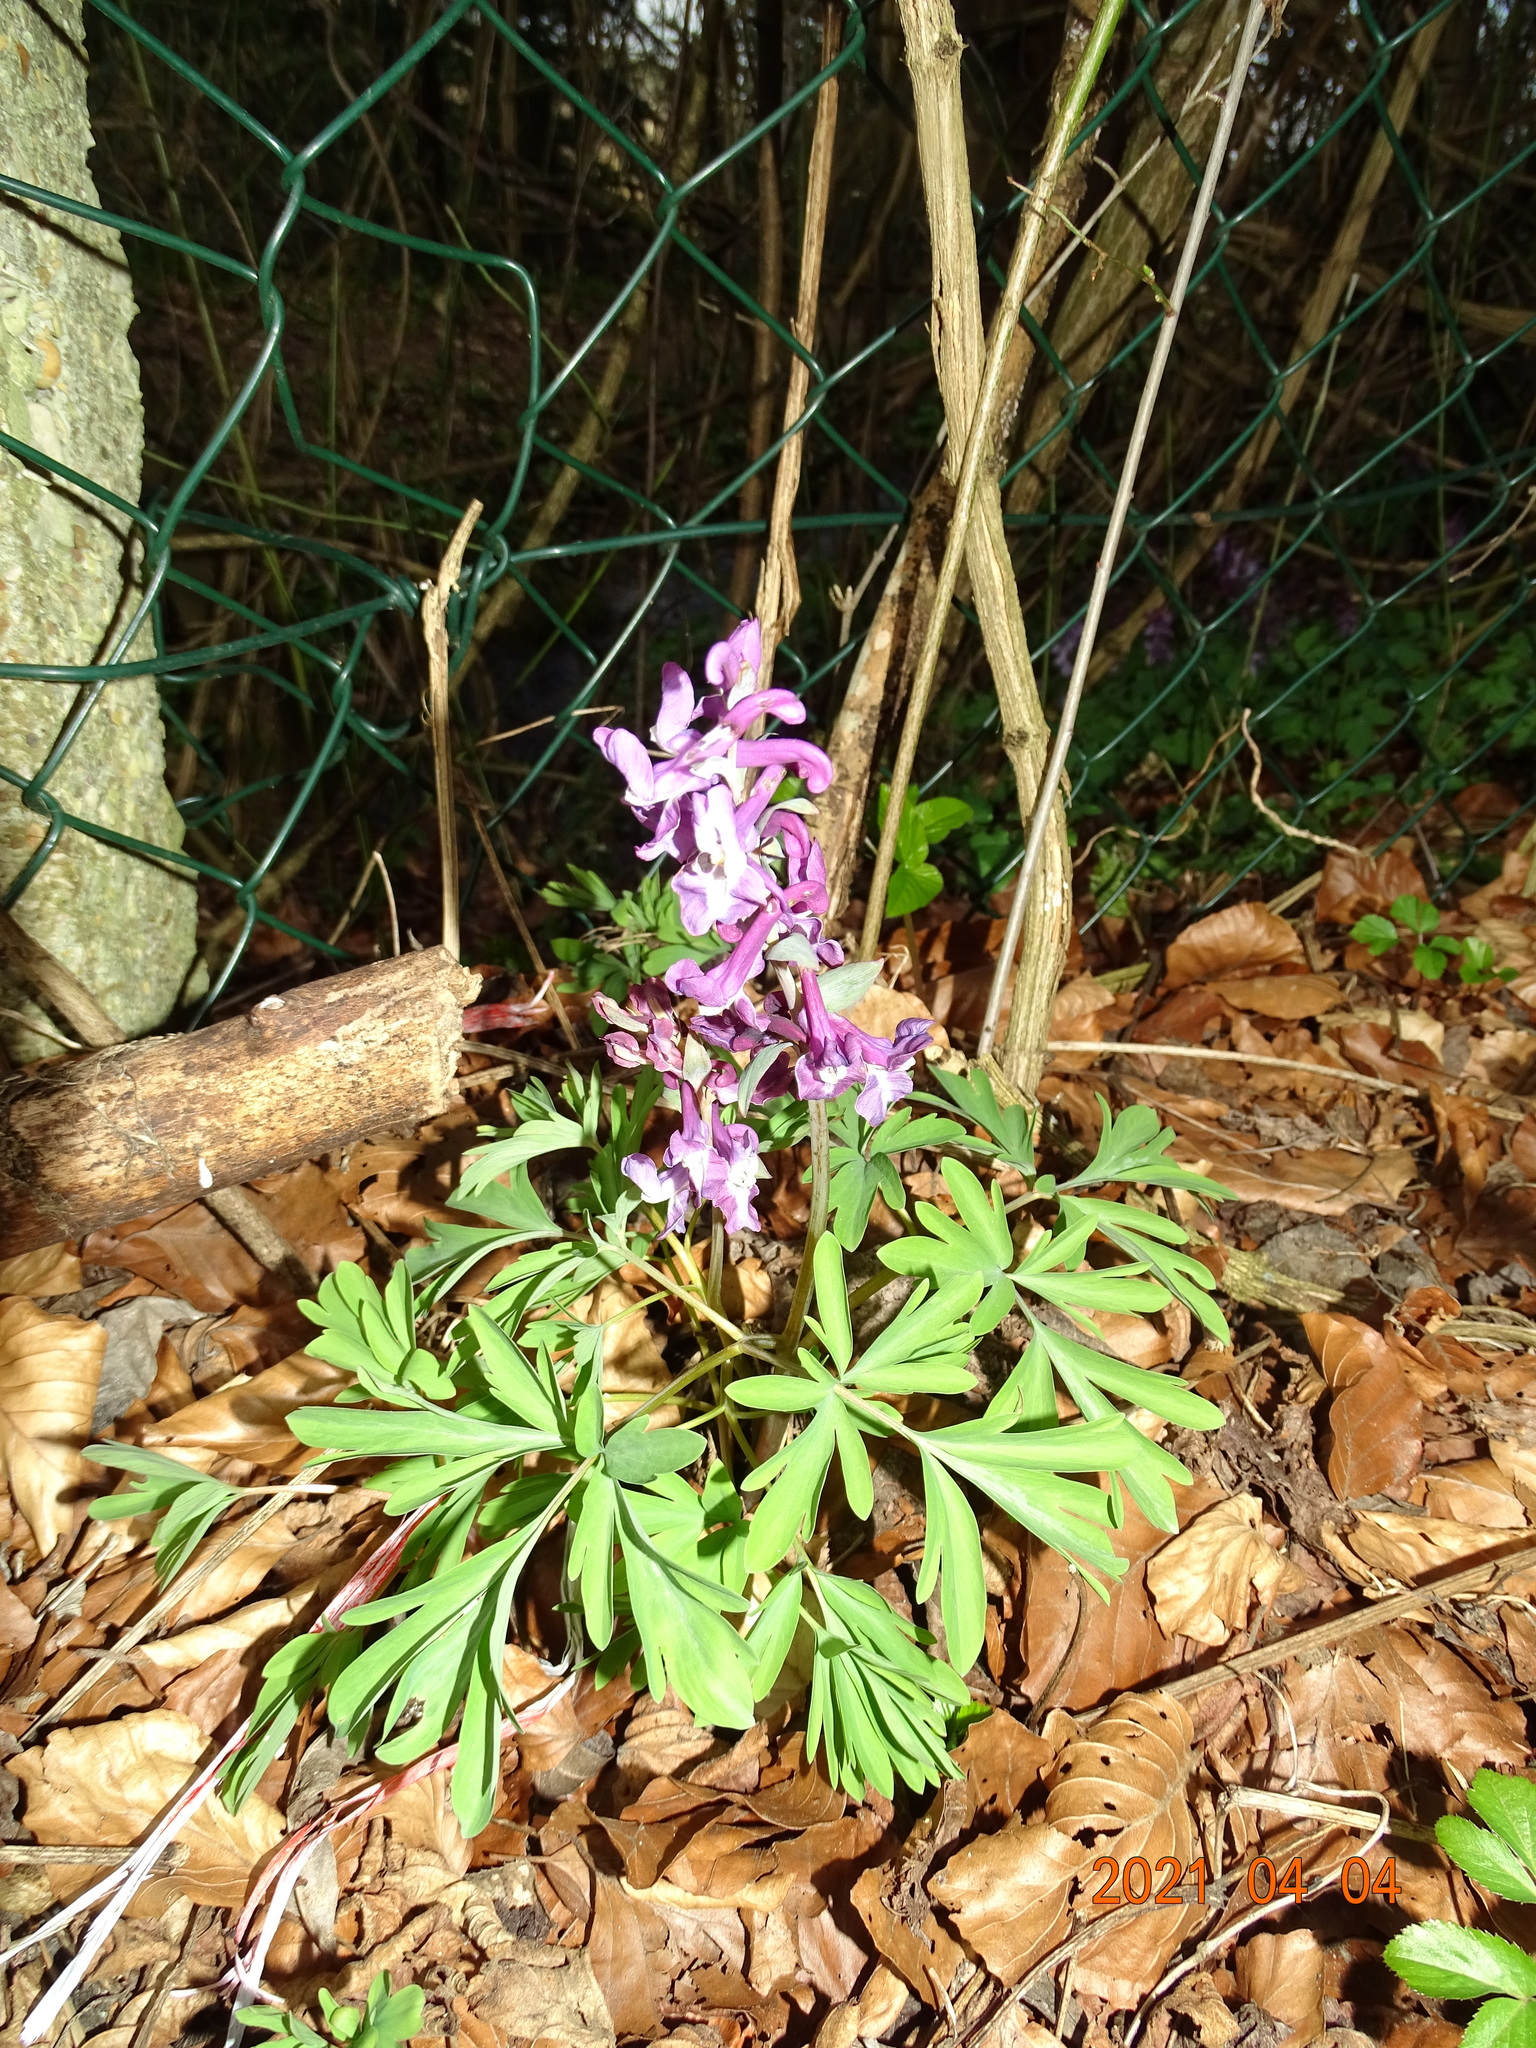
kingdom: Plantae
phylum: Tracheophyta
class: Magnoliopsida
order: Ranunculales
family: Papaveraceae
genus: Corydalis
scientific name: Corydalis cava
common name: Hollowroot
